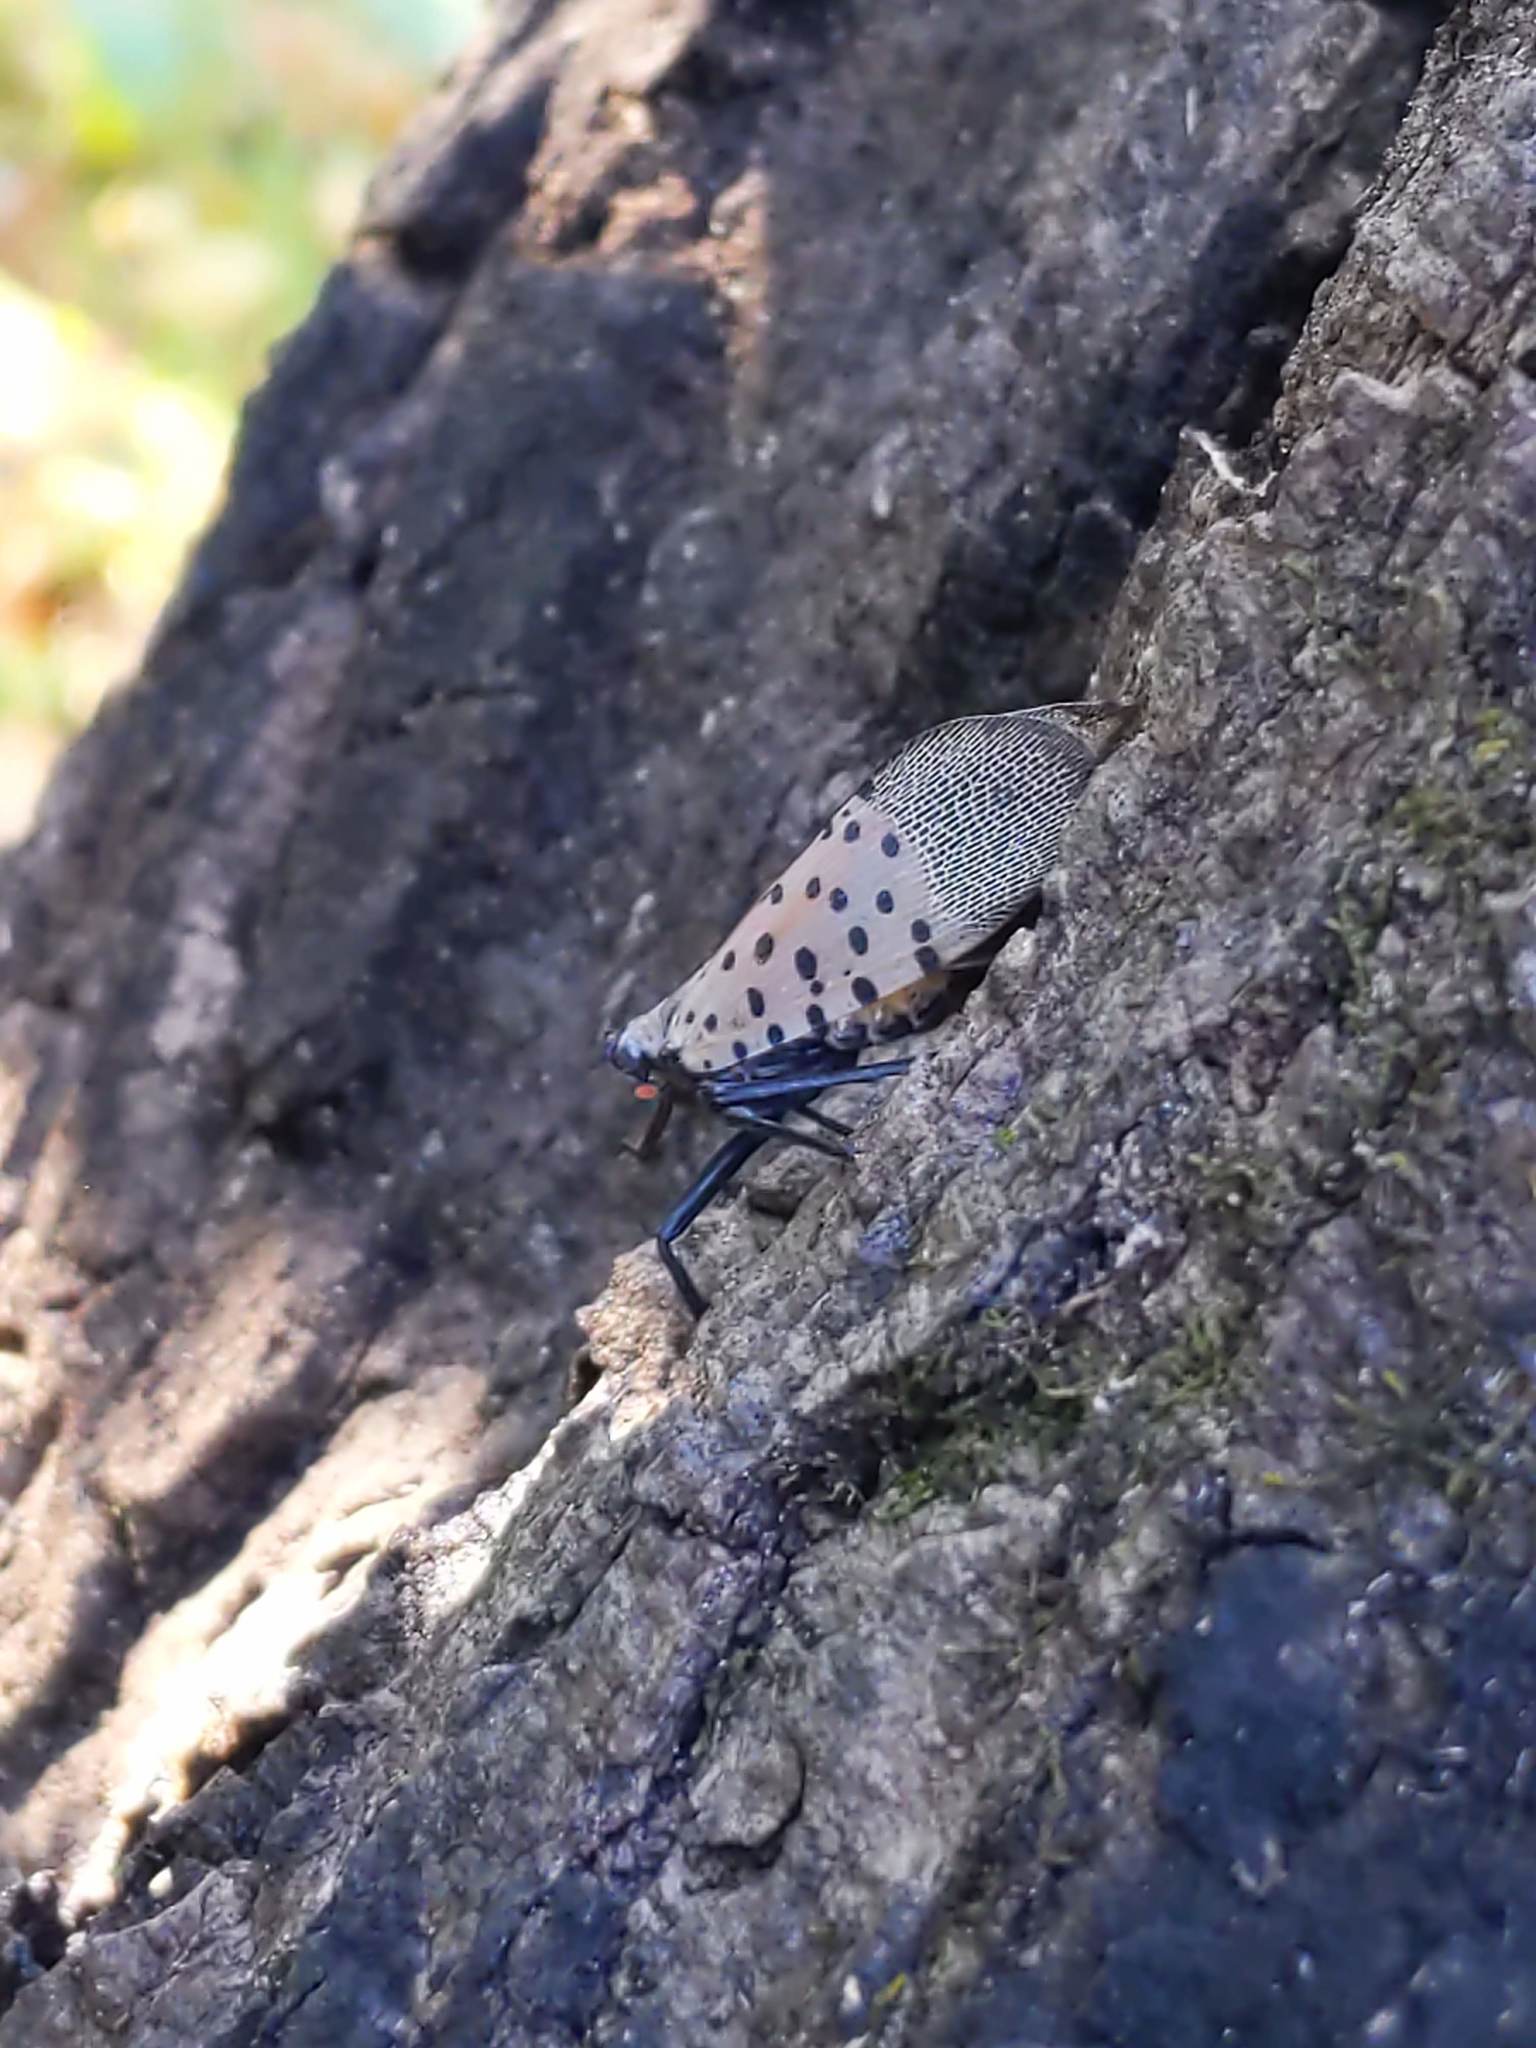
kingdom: Animalia
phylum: Arthropoda
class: Insecta
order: Hemiptera
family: Fulgoridae
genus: Lycorma
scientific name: Lycorma delicatula
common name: Spotted lanternfly
